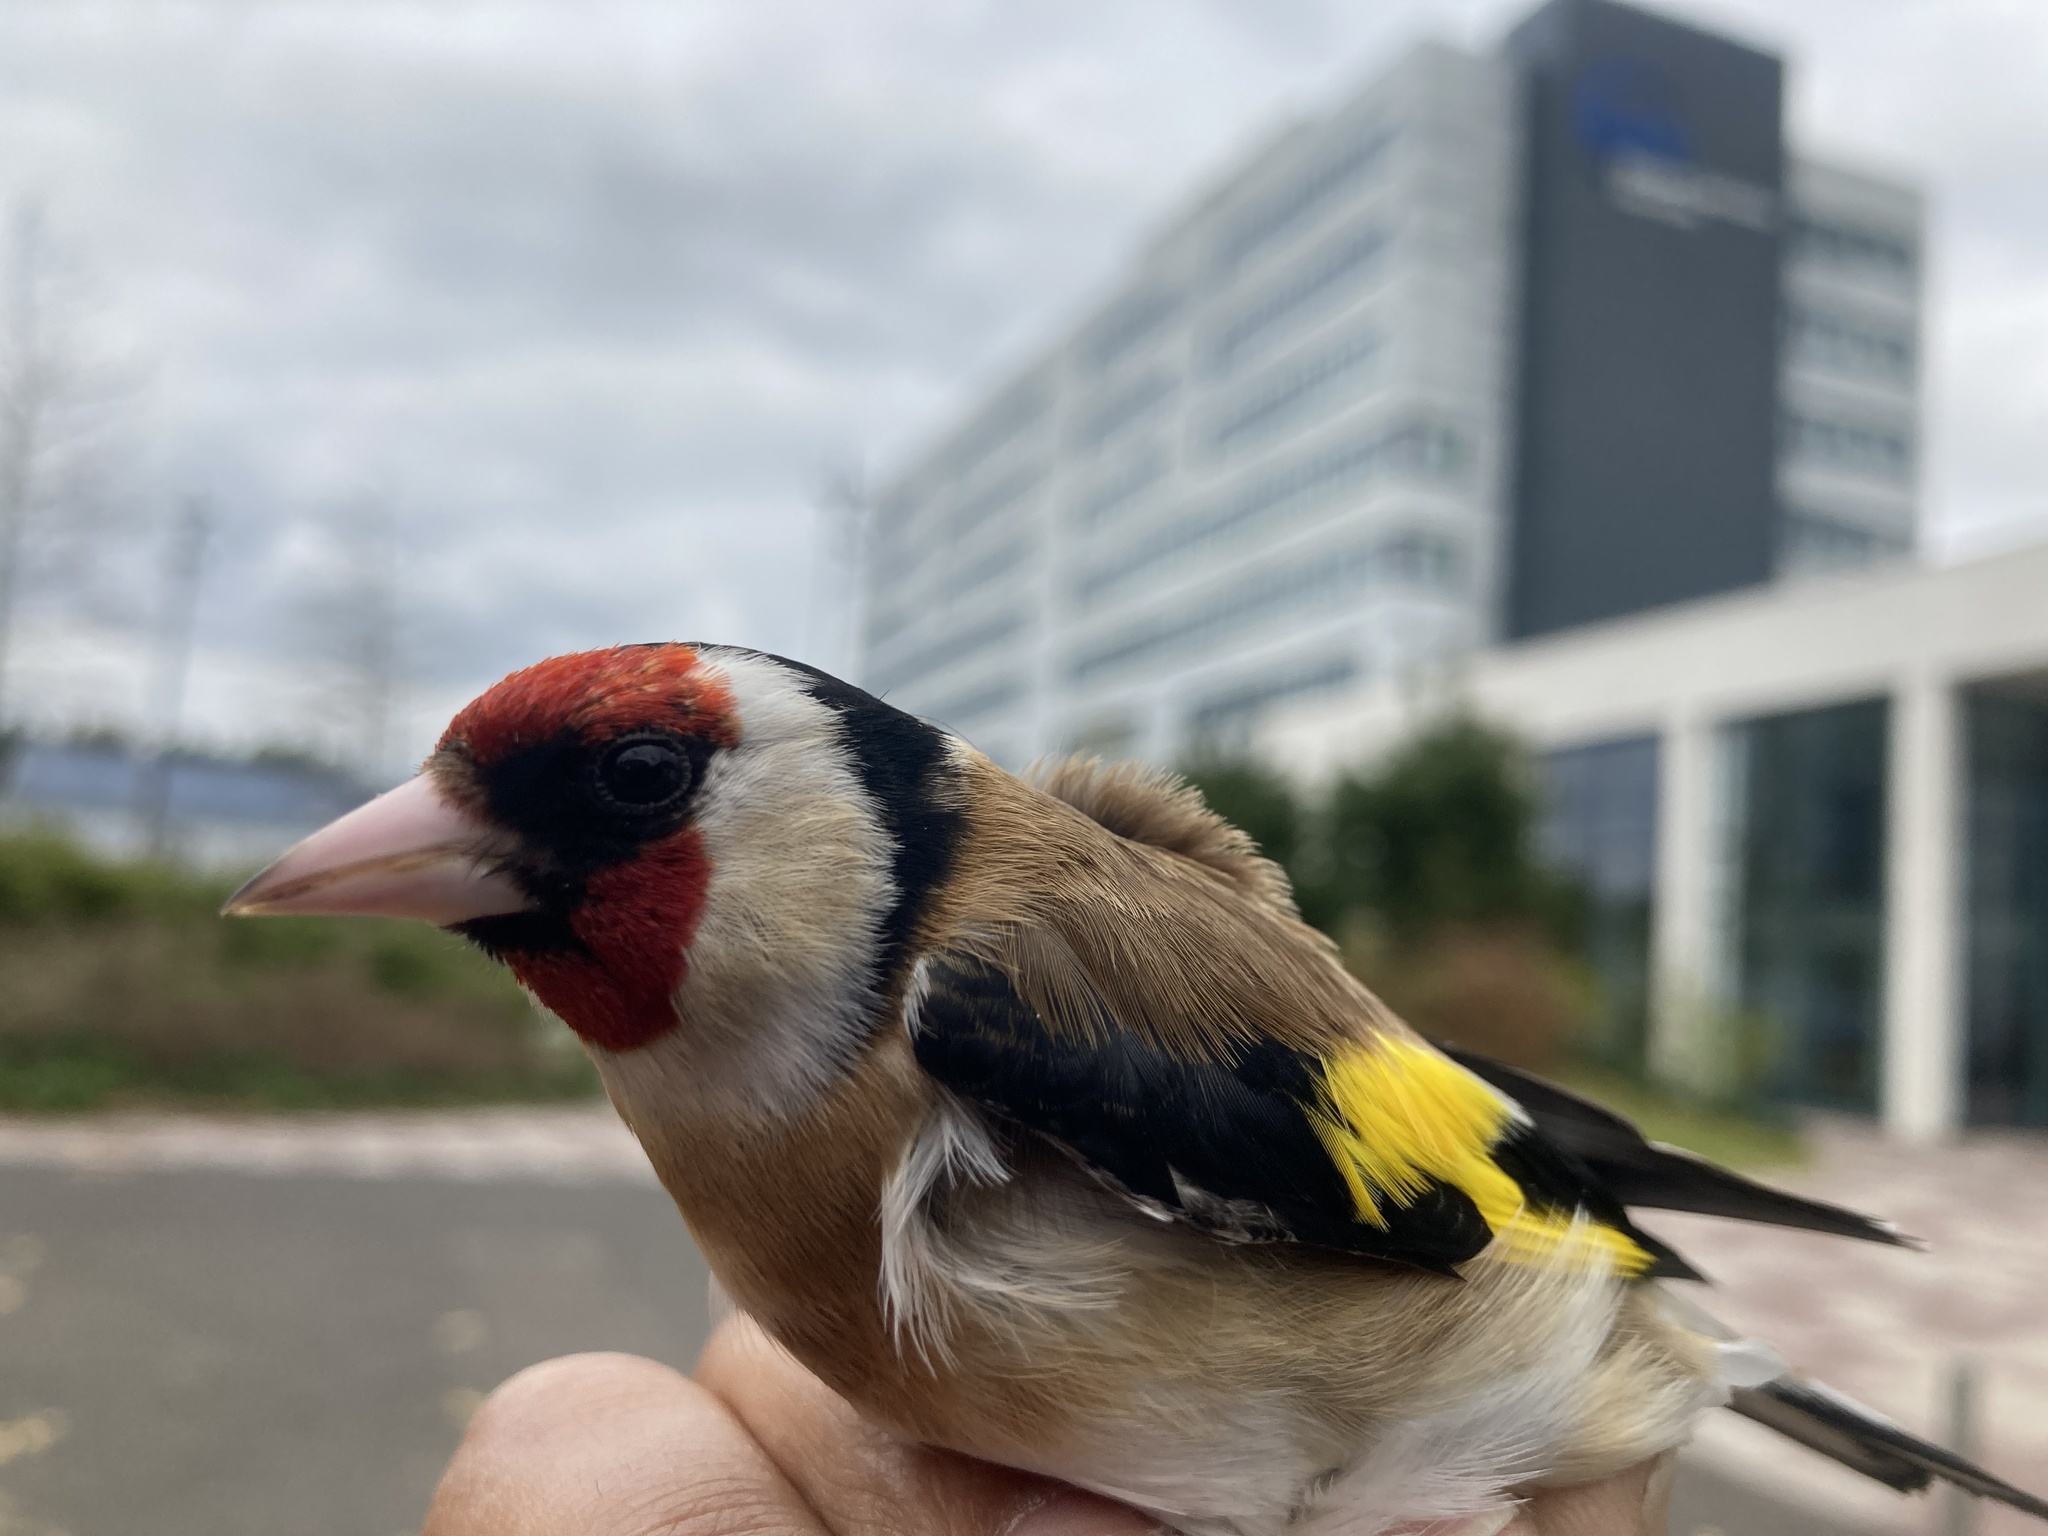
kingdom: Animalia
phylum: Chordata
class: Aves
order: Passeriformes
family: Fringillidae
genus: Carduelis
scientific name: Carduelis carduelis
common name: European goldfinch
